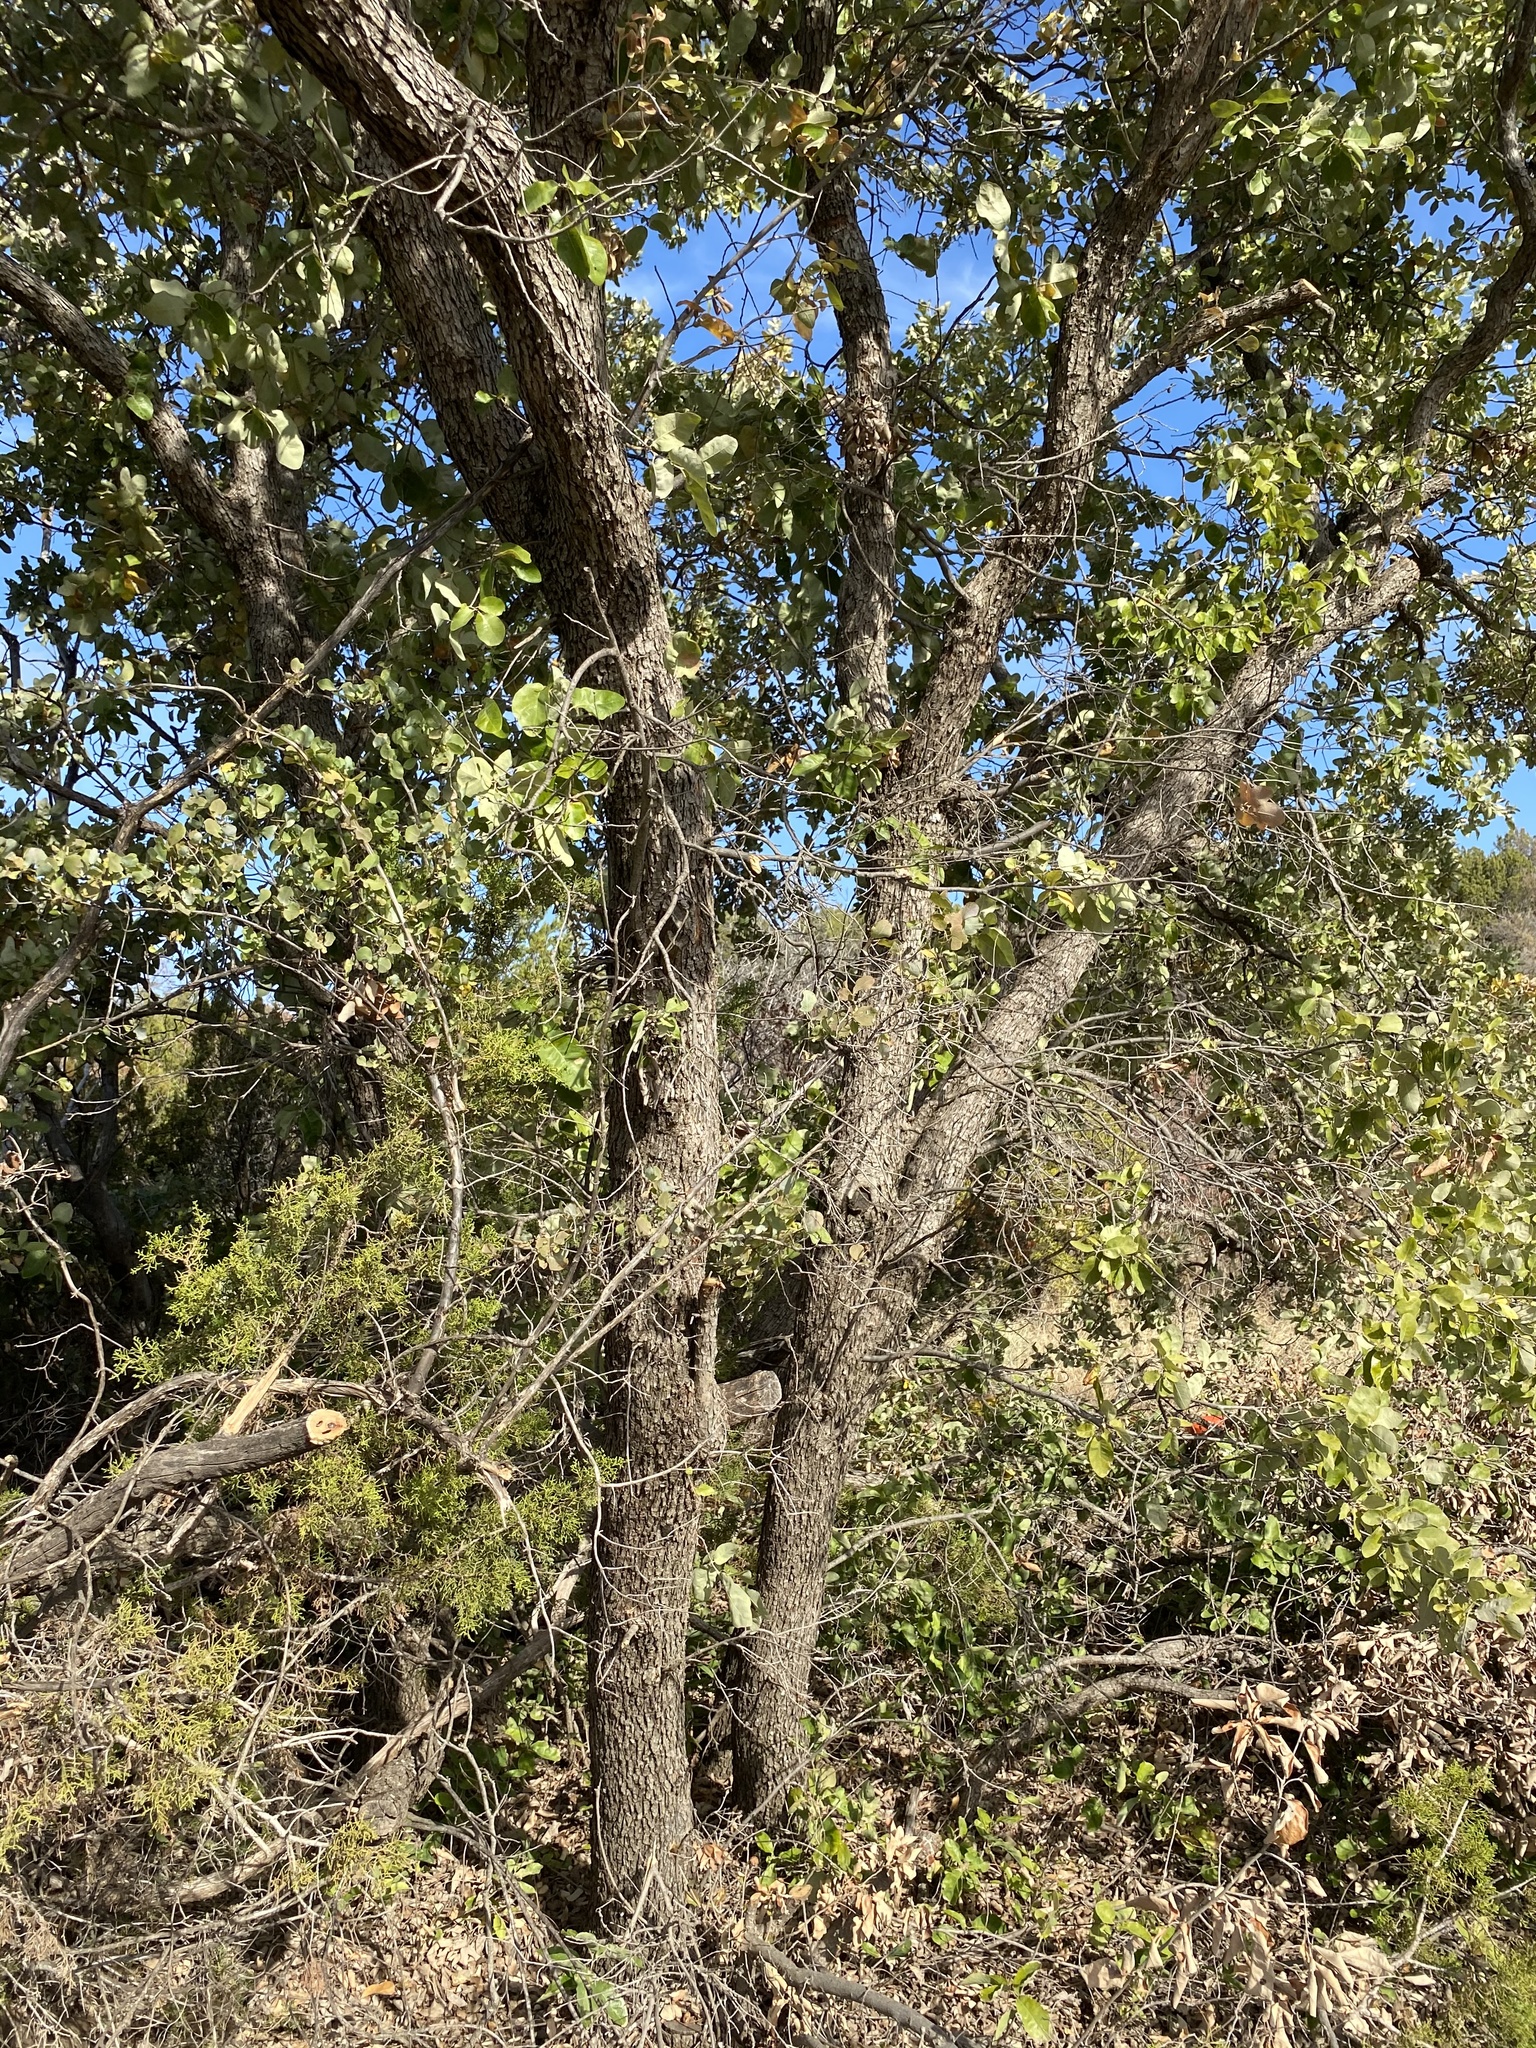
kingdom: Plantae
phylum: Tracheophyta
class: Magnoliopsida
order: Fagales
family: Fagaceae
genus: Quercus
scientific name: Quercus fusiformis
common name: Texas live oak
